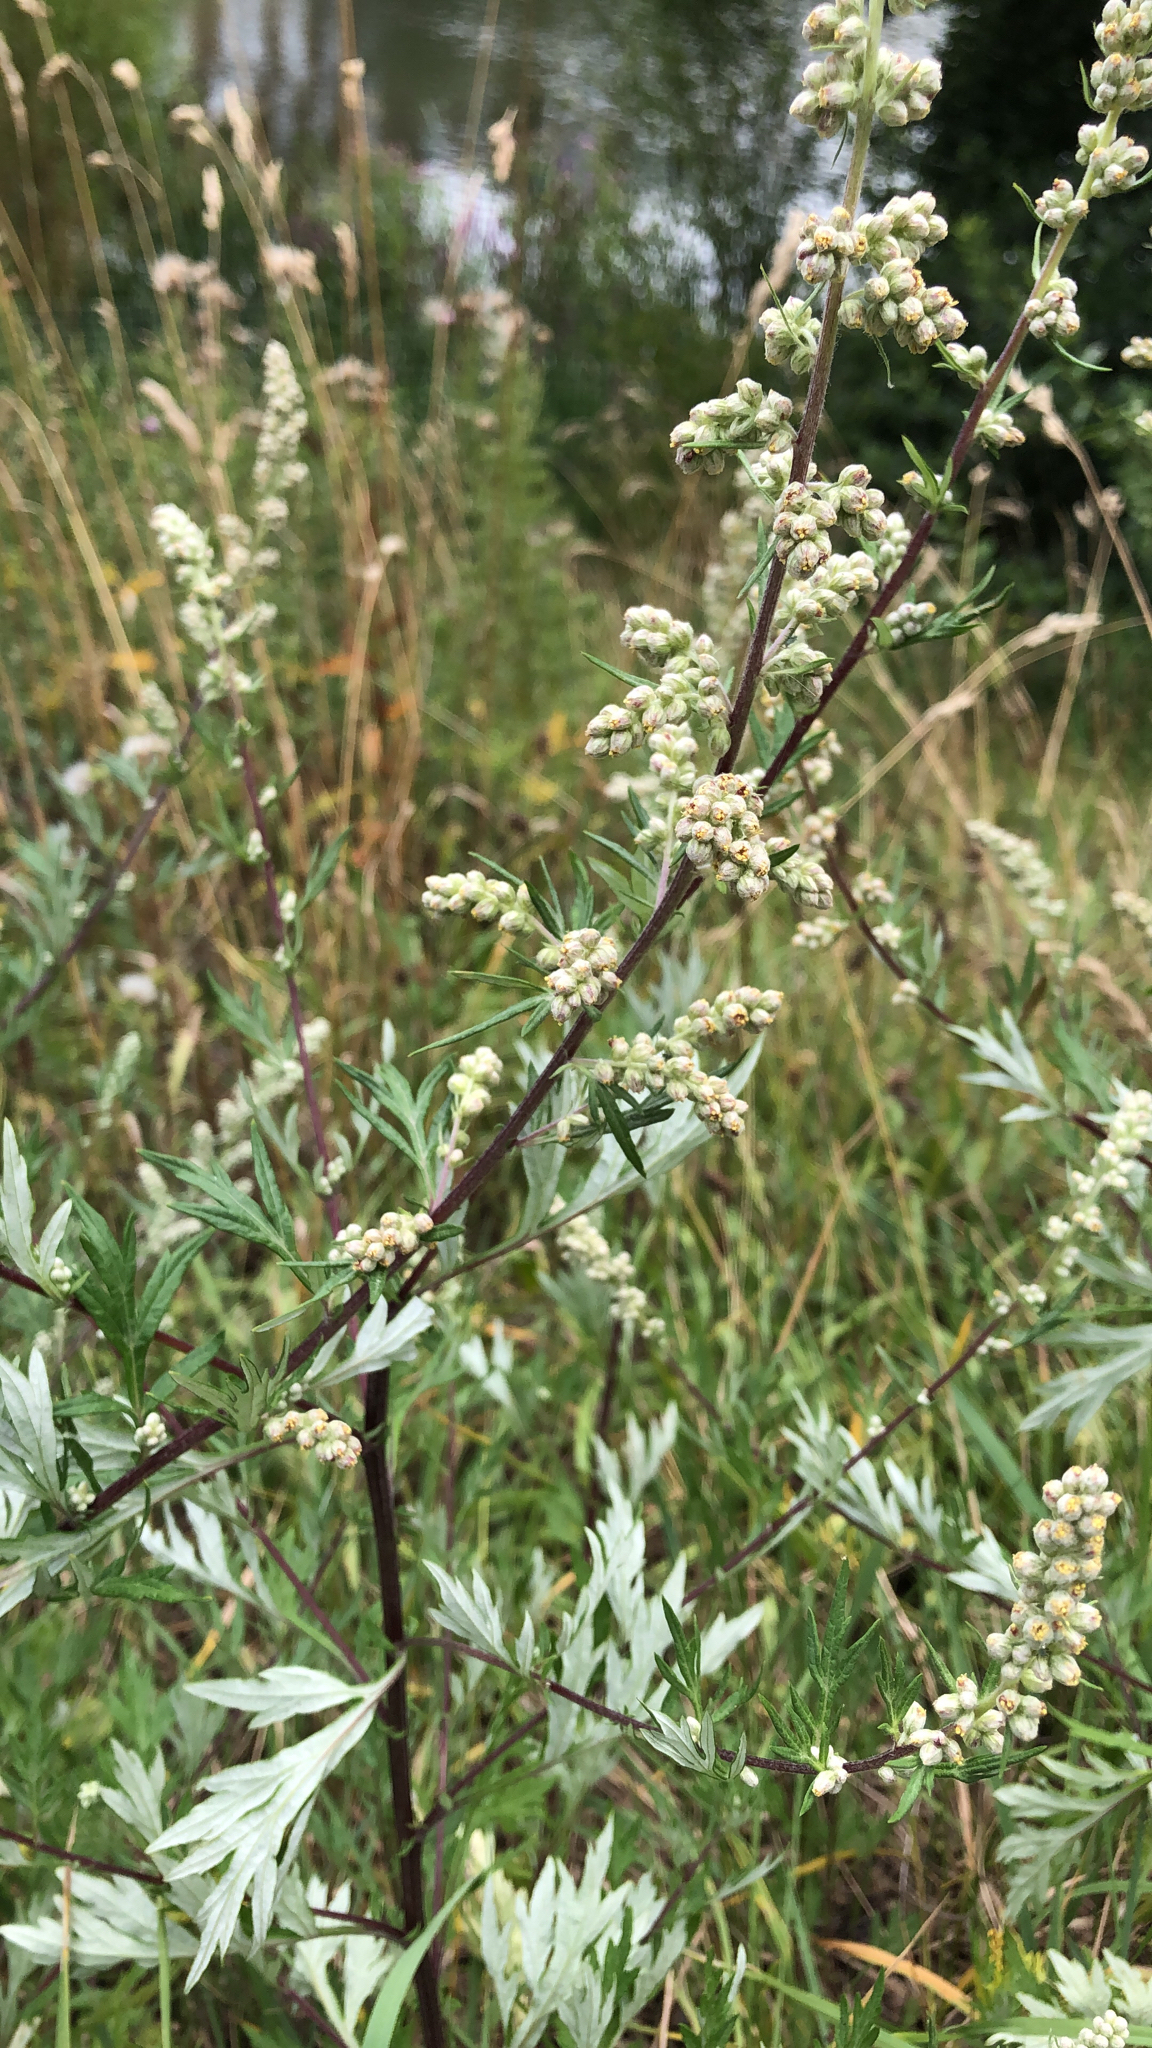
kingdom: Plantae
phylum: Tracheophyta
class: Magnoliopsida
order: Asterales
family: Asteraceae
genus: Artemisia
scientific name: Artemisia vulgaris
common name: Mugwort
